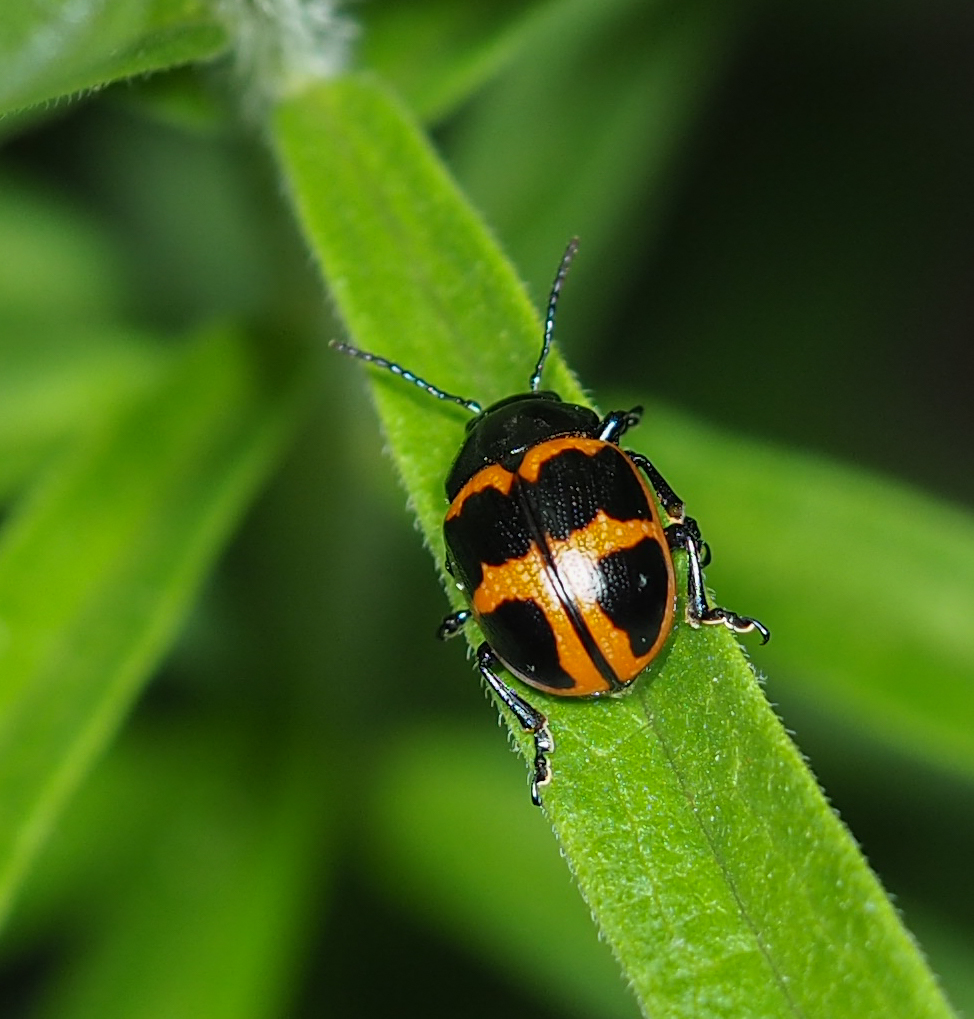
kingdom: Animalia
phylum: Arthropoda
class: Insecta
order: Coleoptera
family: Chrysomelidae
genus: Labidomera
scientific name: Labidomera clivicollis
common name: Swamp milkweed leaf beetle
